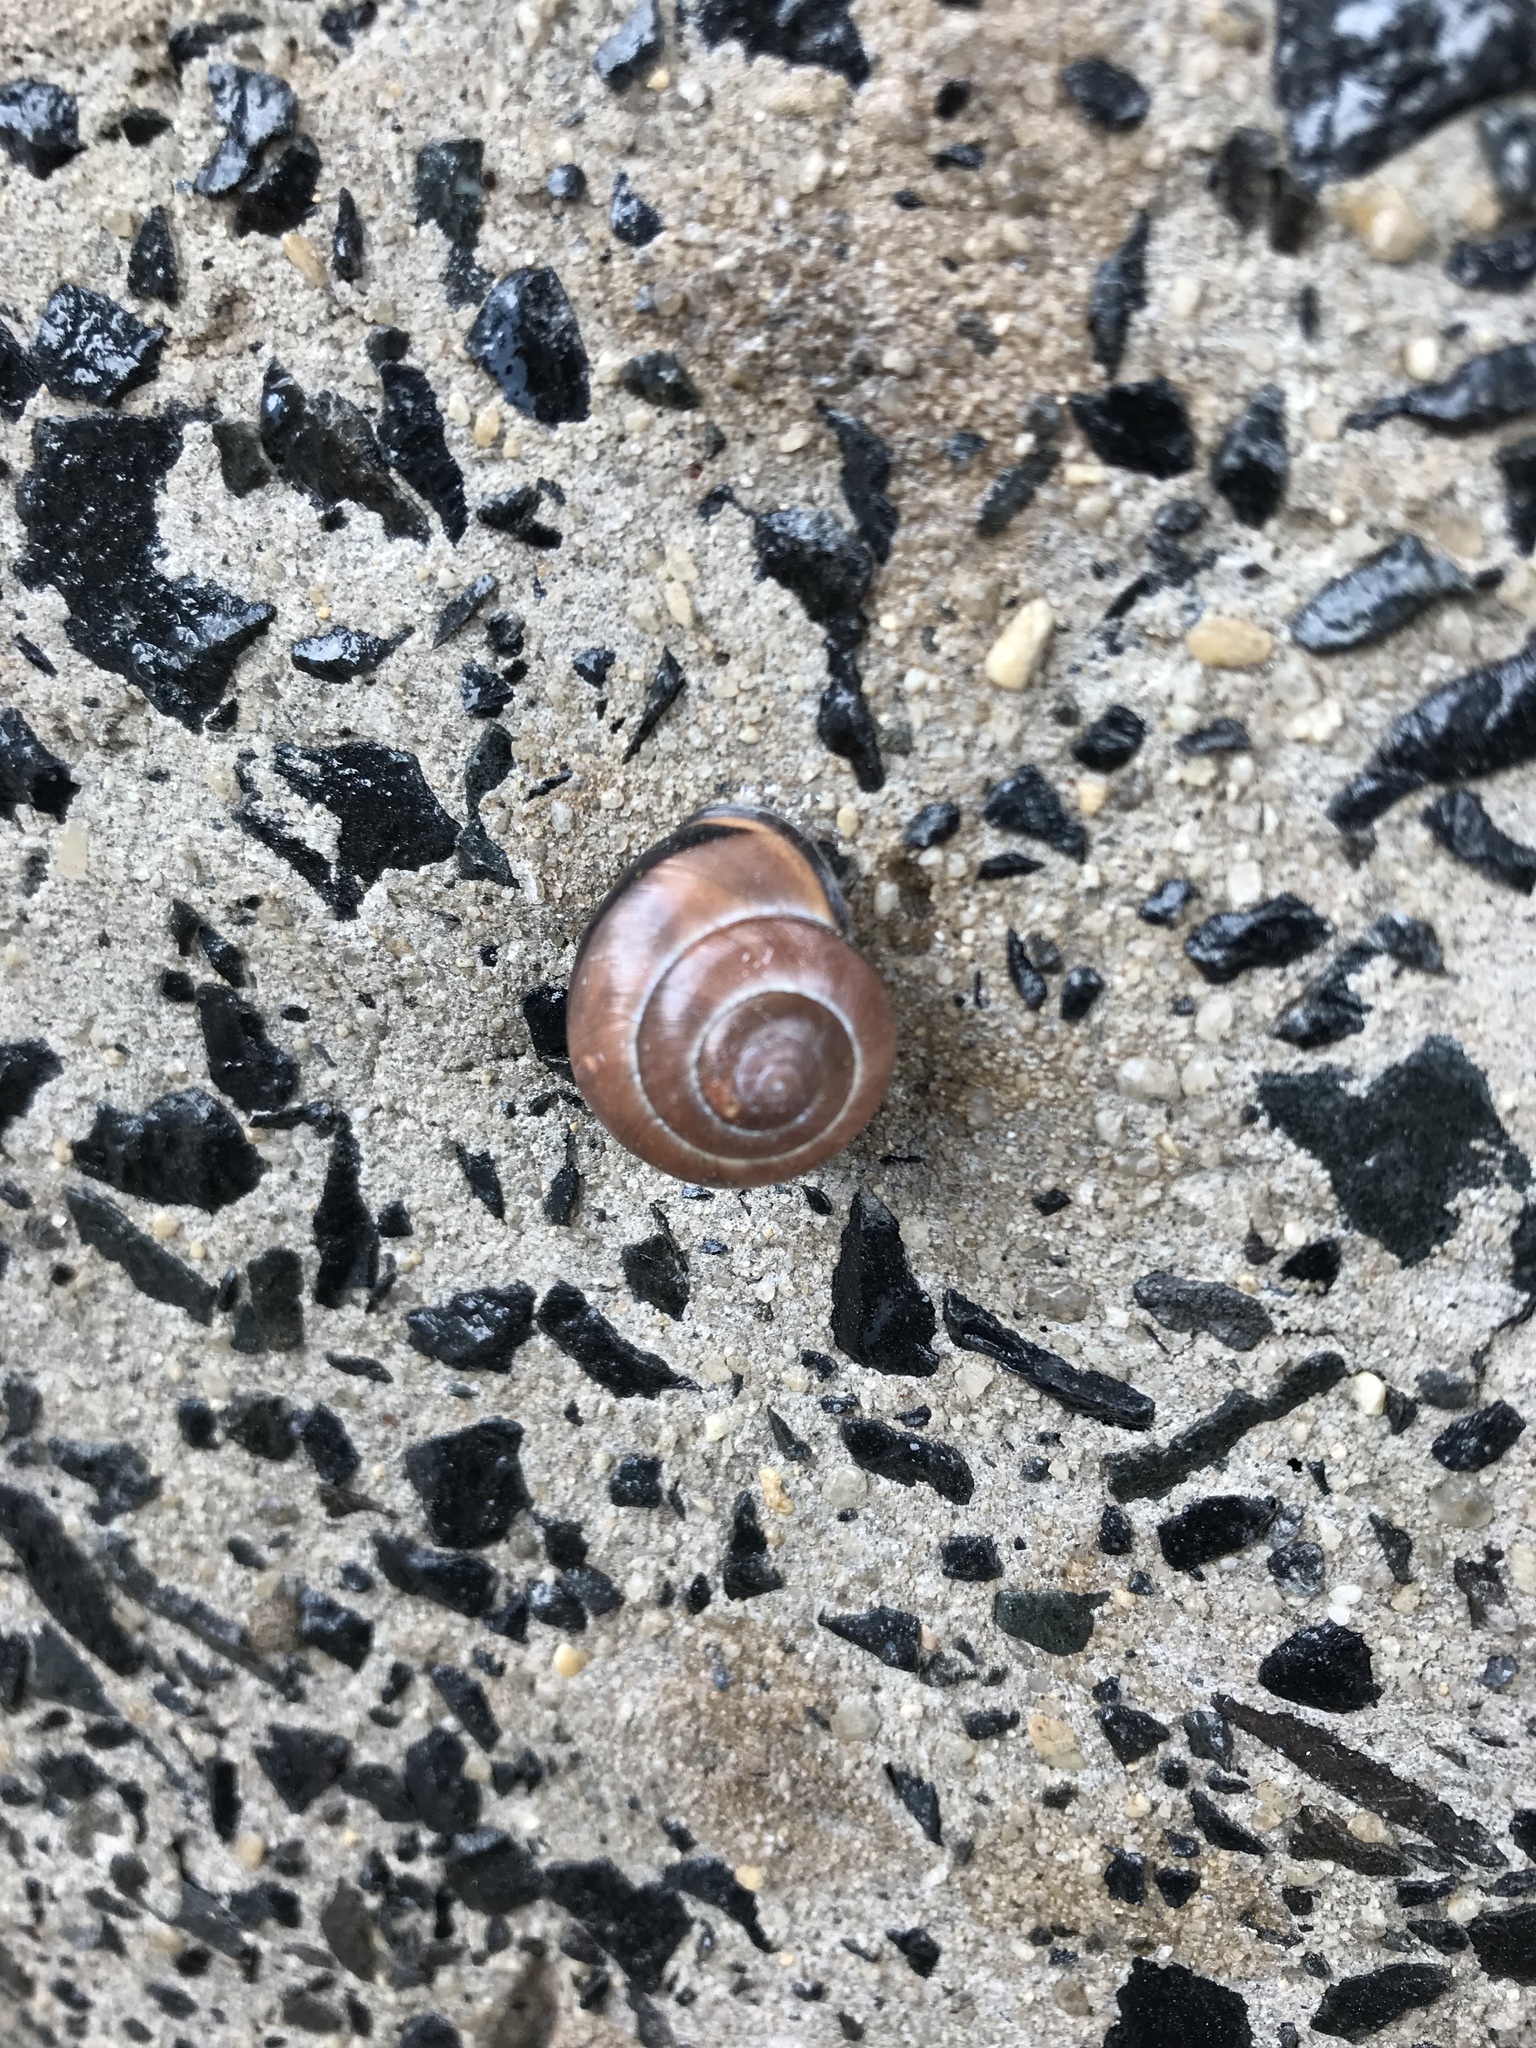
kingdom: Animalia
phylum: Mollusca
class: Gastropoda
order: Stylommatophora
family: Helicidae
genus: Cepaea
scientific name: Cepaea nemoralis
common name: Grovesnail
